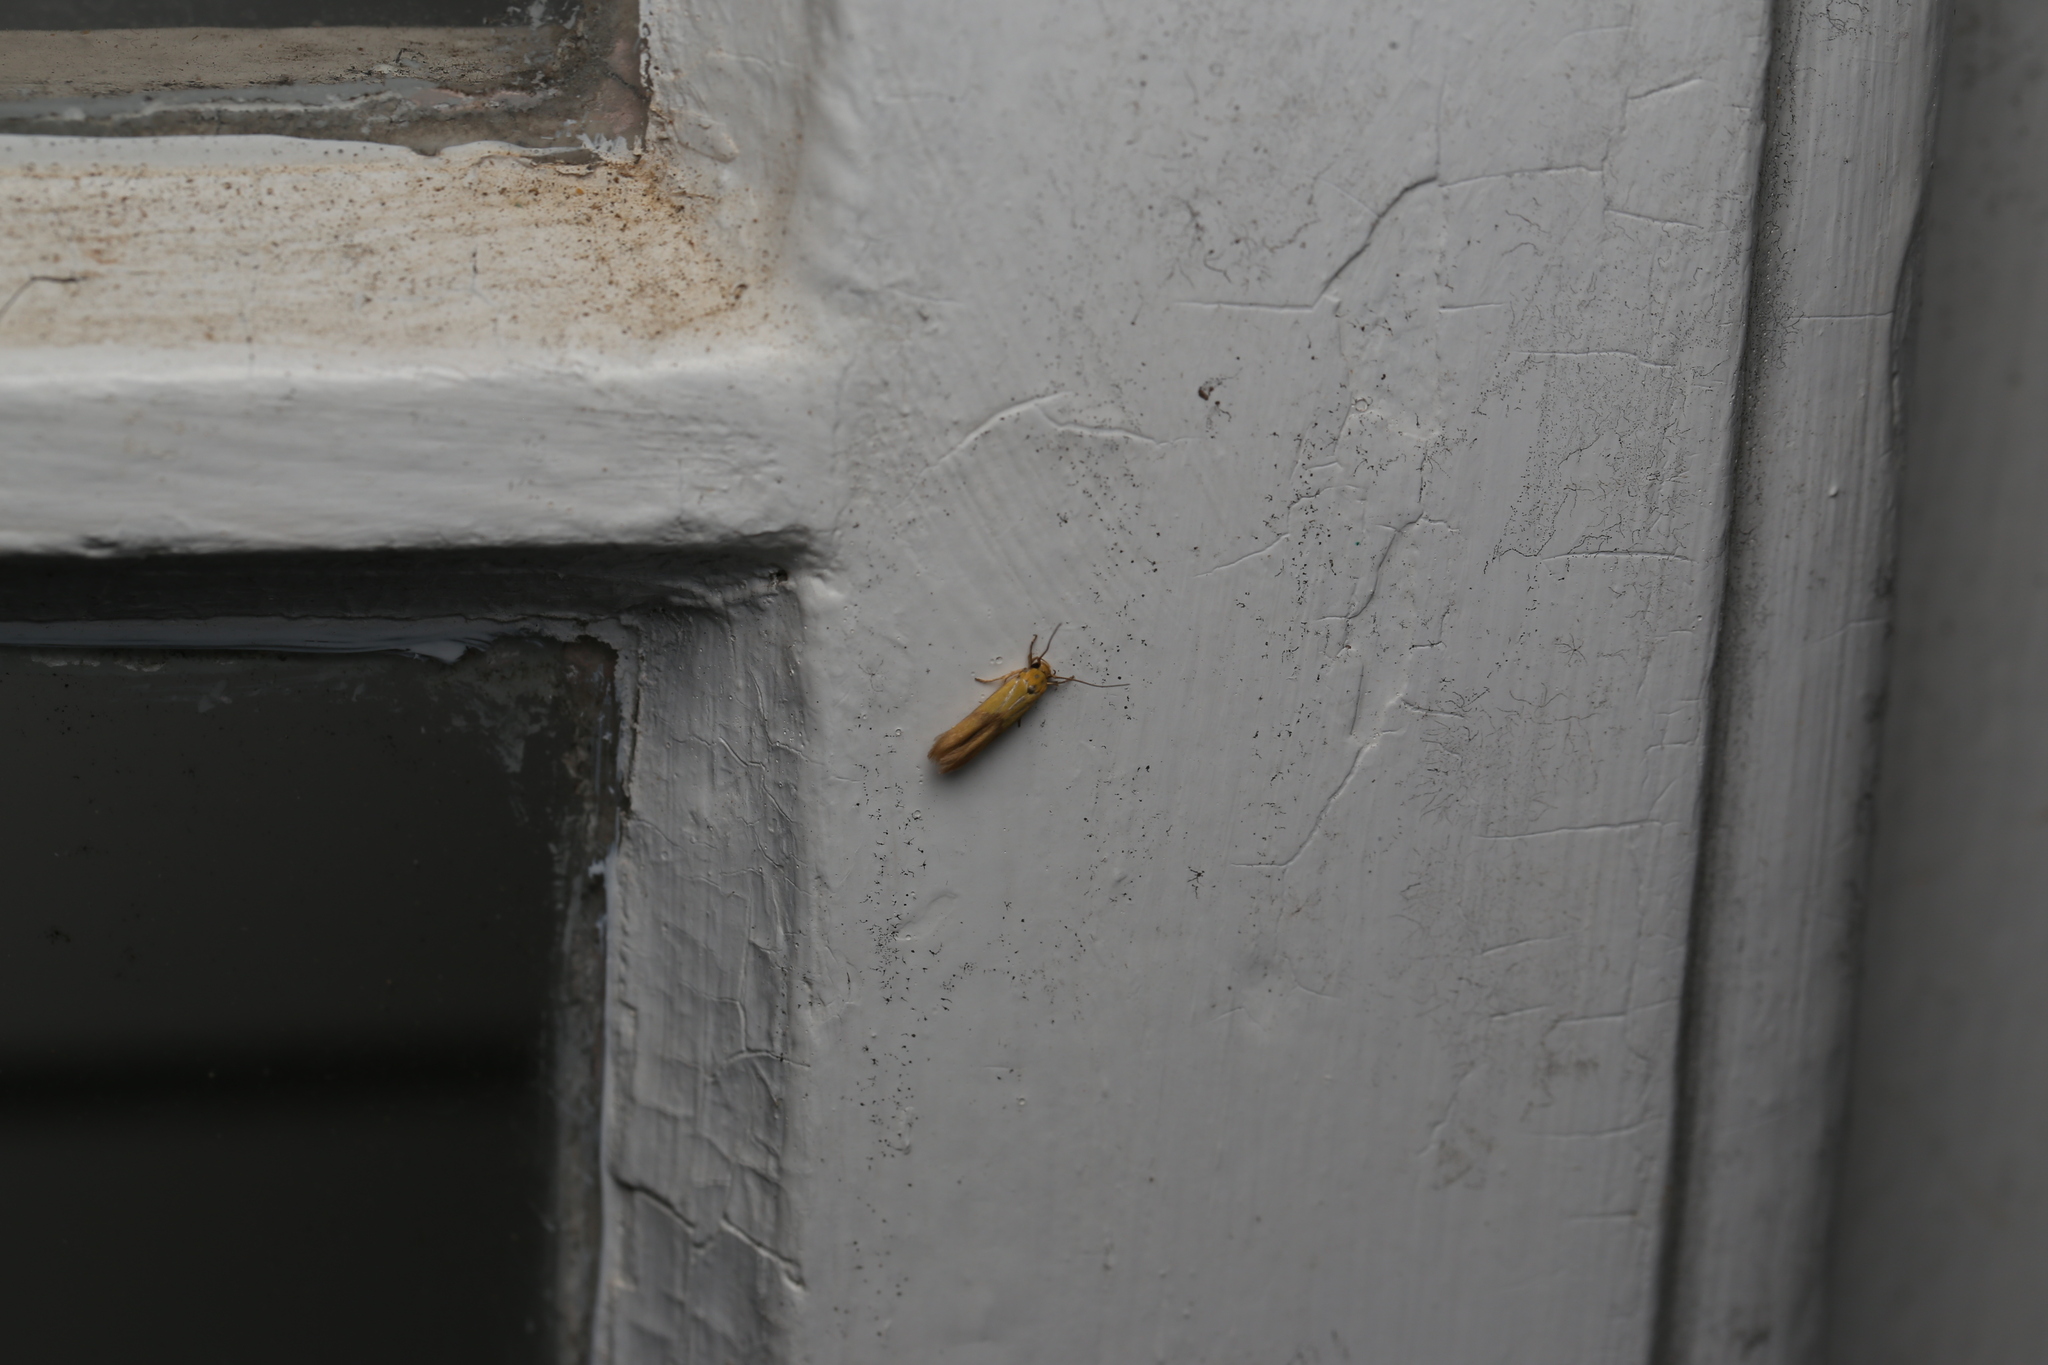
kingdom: Animalia
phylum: Arthropoda
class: Insecta
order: Lepidoptera
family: Stathmopodidae
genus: Stathmopoda
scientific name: Stathmopoda auriferella
